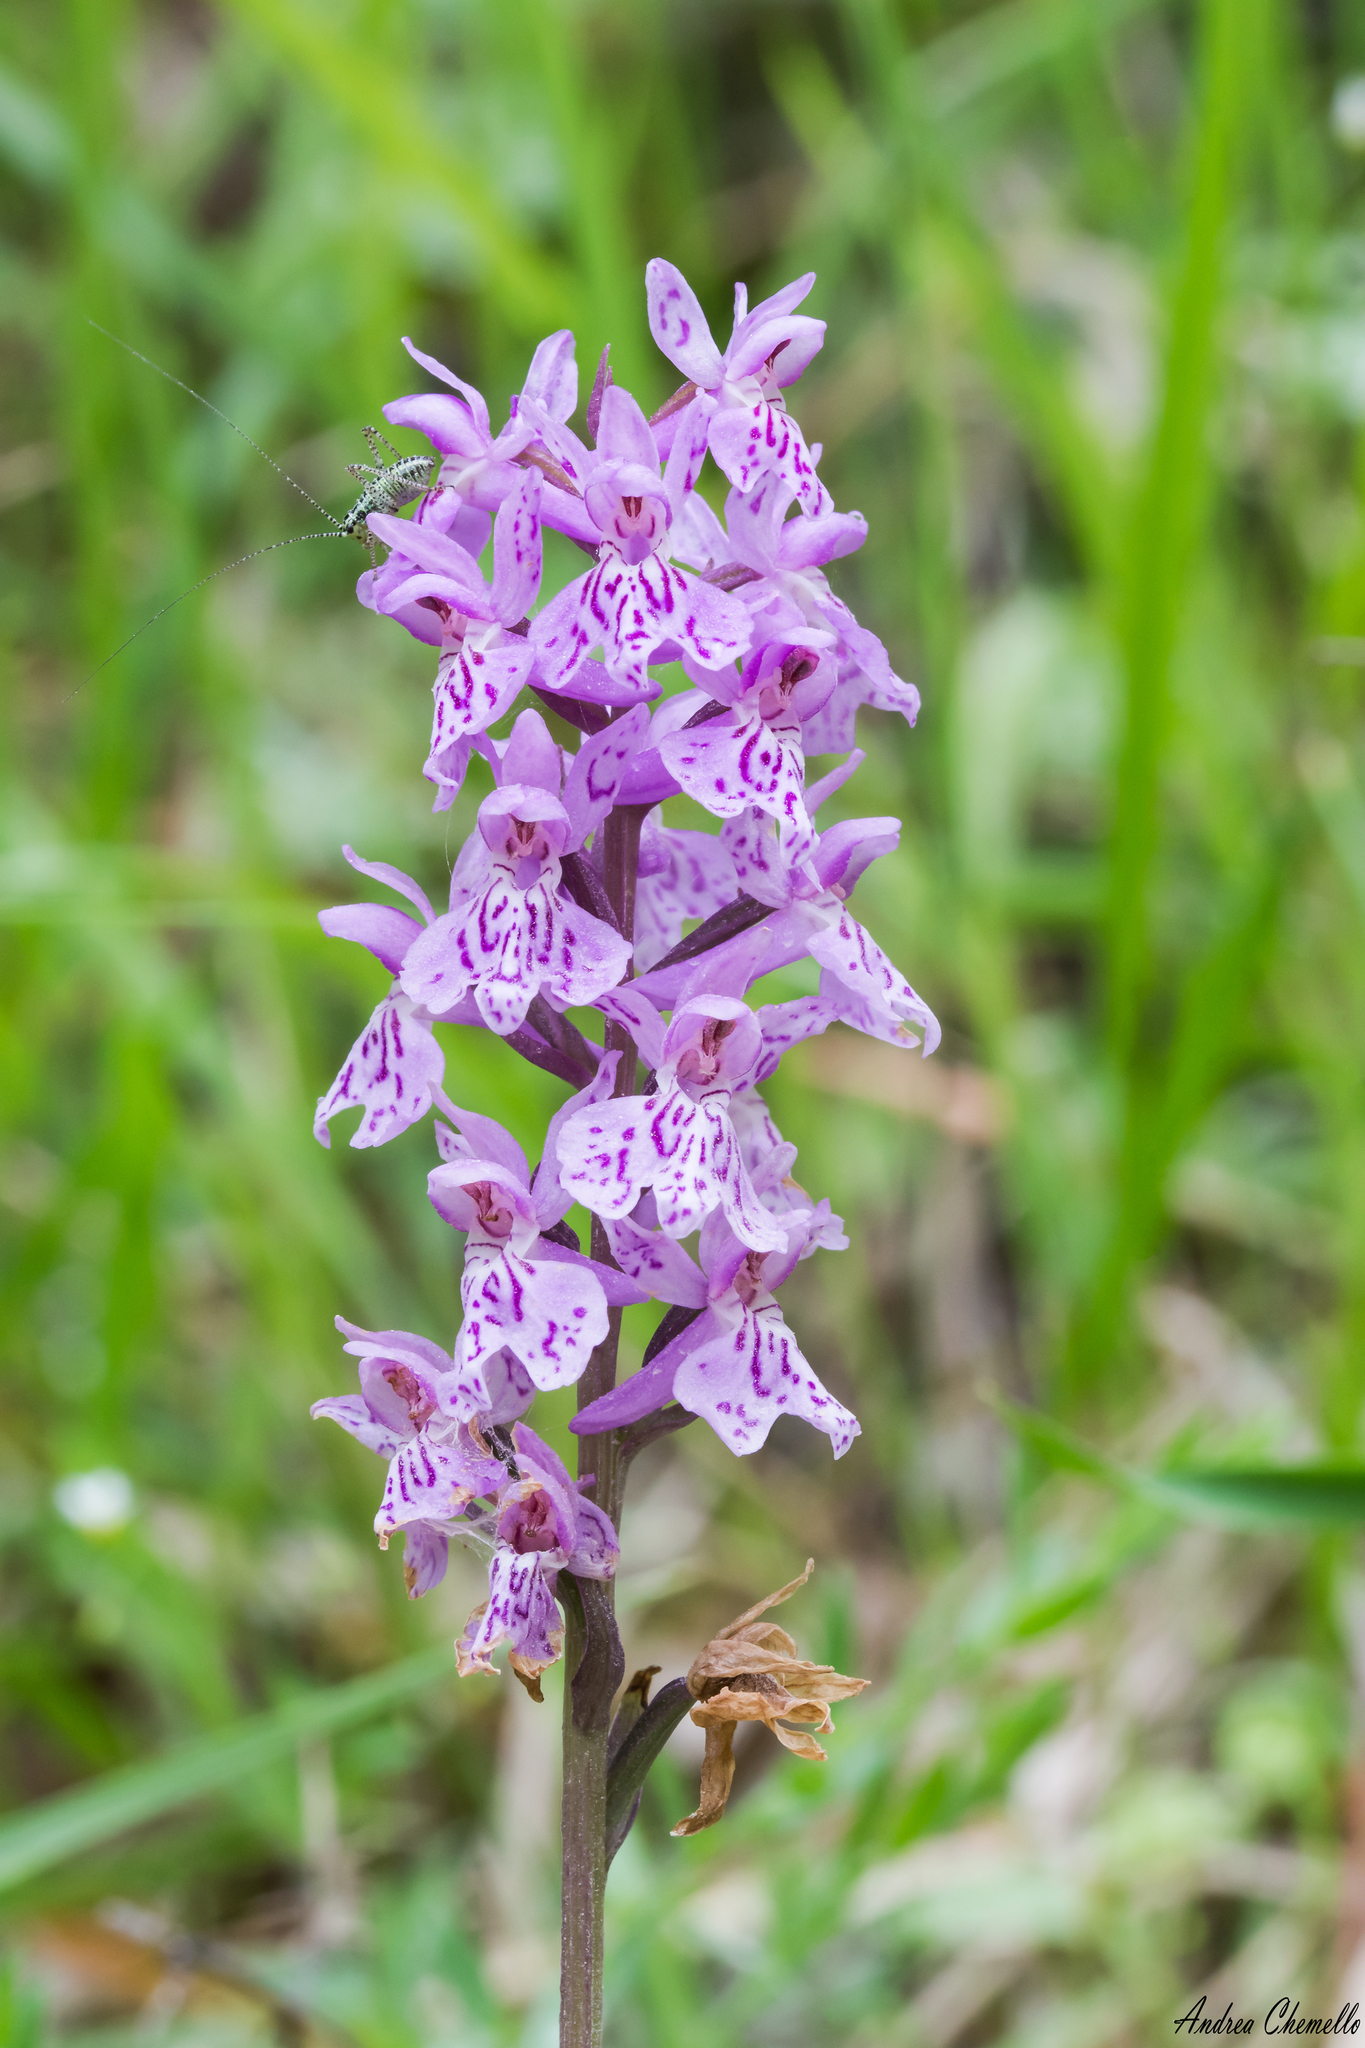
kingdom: Plantae
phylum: Tracheophyta
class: Liliopsida
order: Asparagales
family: Orchidaceae
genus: Dactylorhiza
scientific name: Dactylorhiza maculata
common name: Heath spotted-orchid
